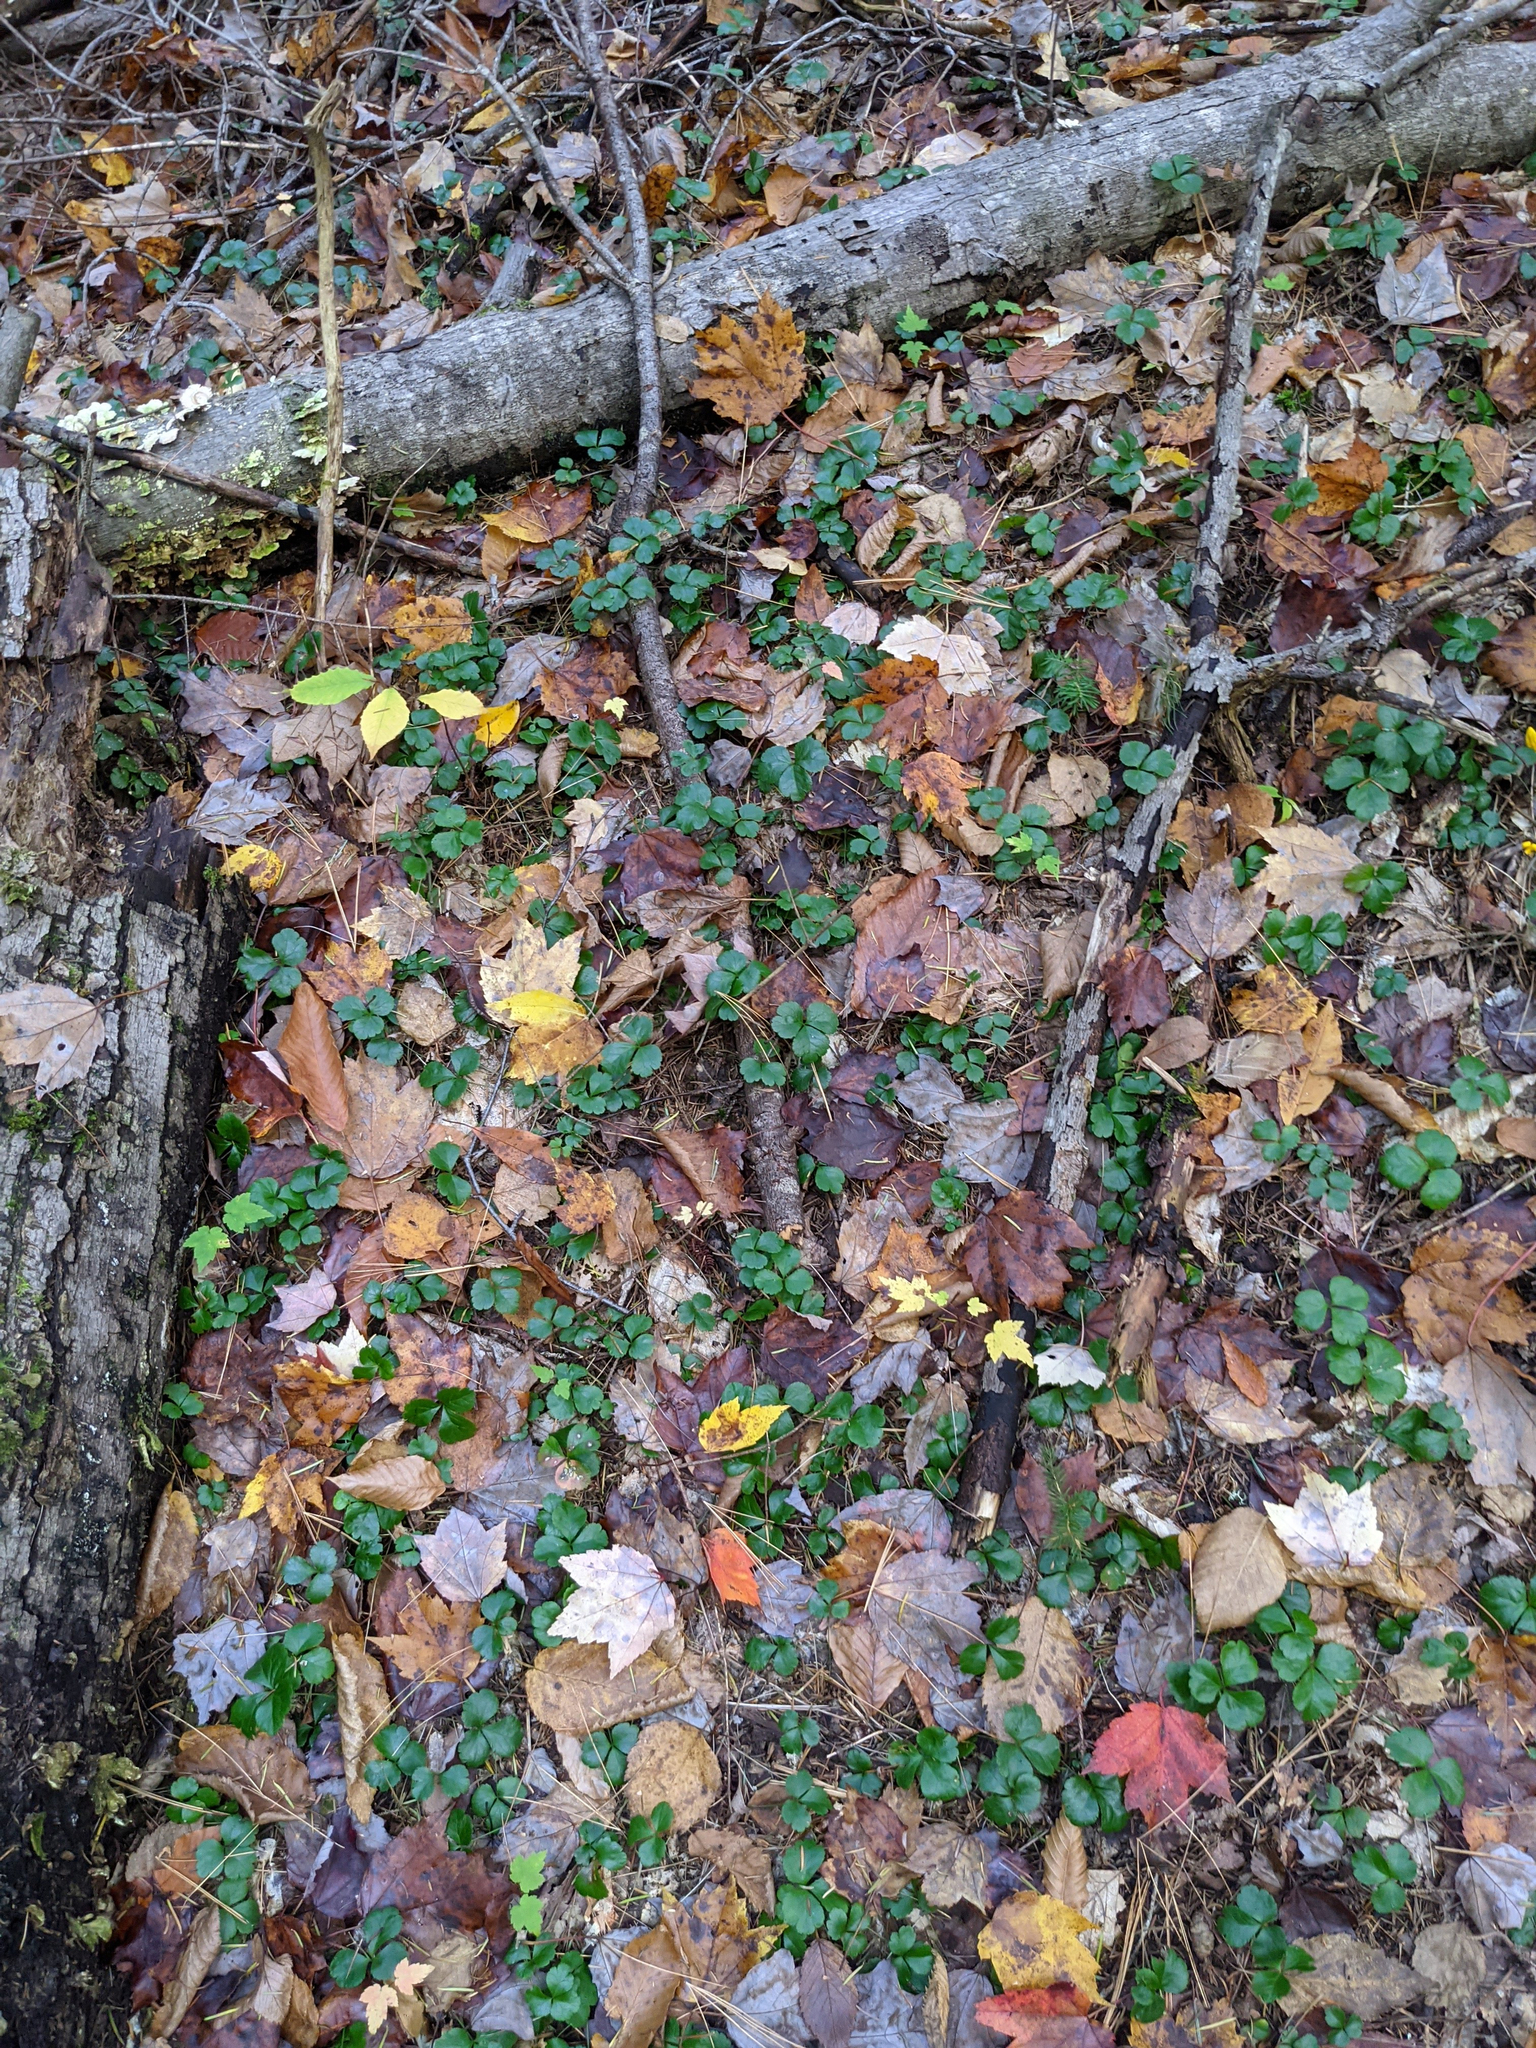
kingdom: Plantae
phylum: Tracheophyta
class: Magnoliopsida
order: Ranunculales
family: Ranunculaceae
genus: Coptis
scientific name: Coptis trifolia
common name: Canker-root
